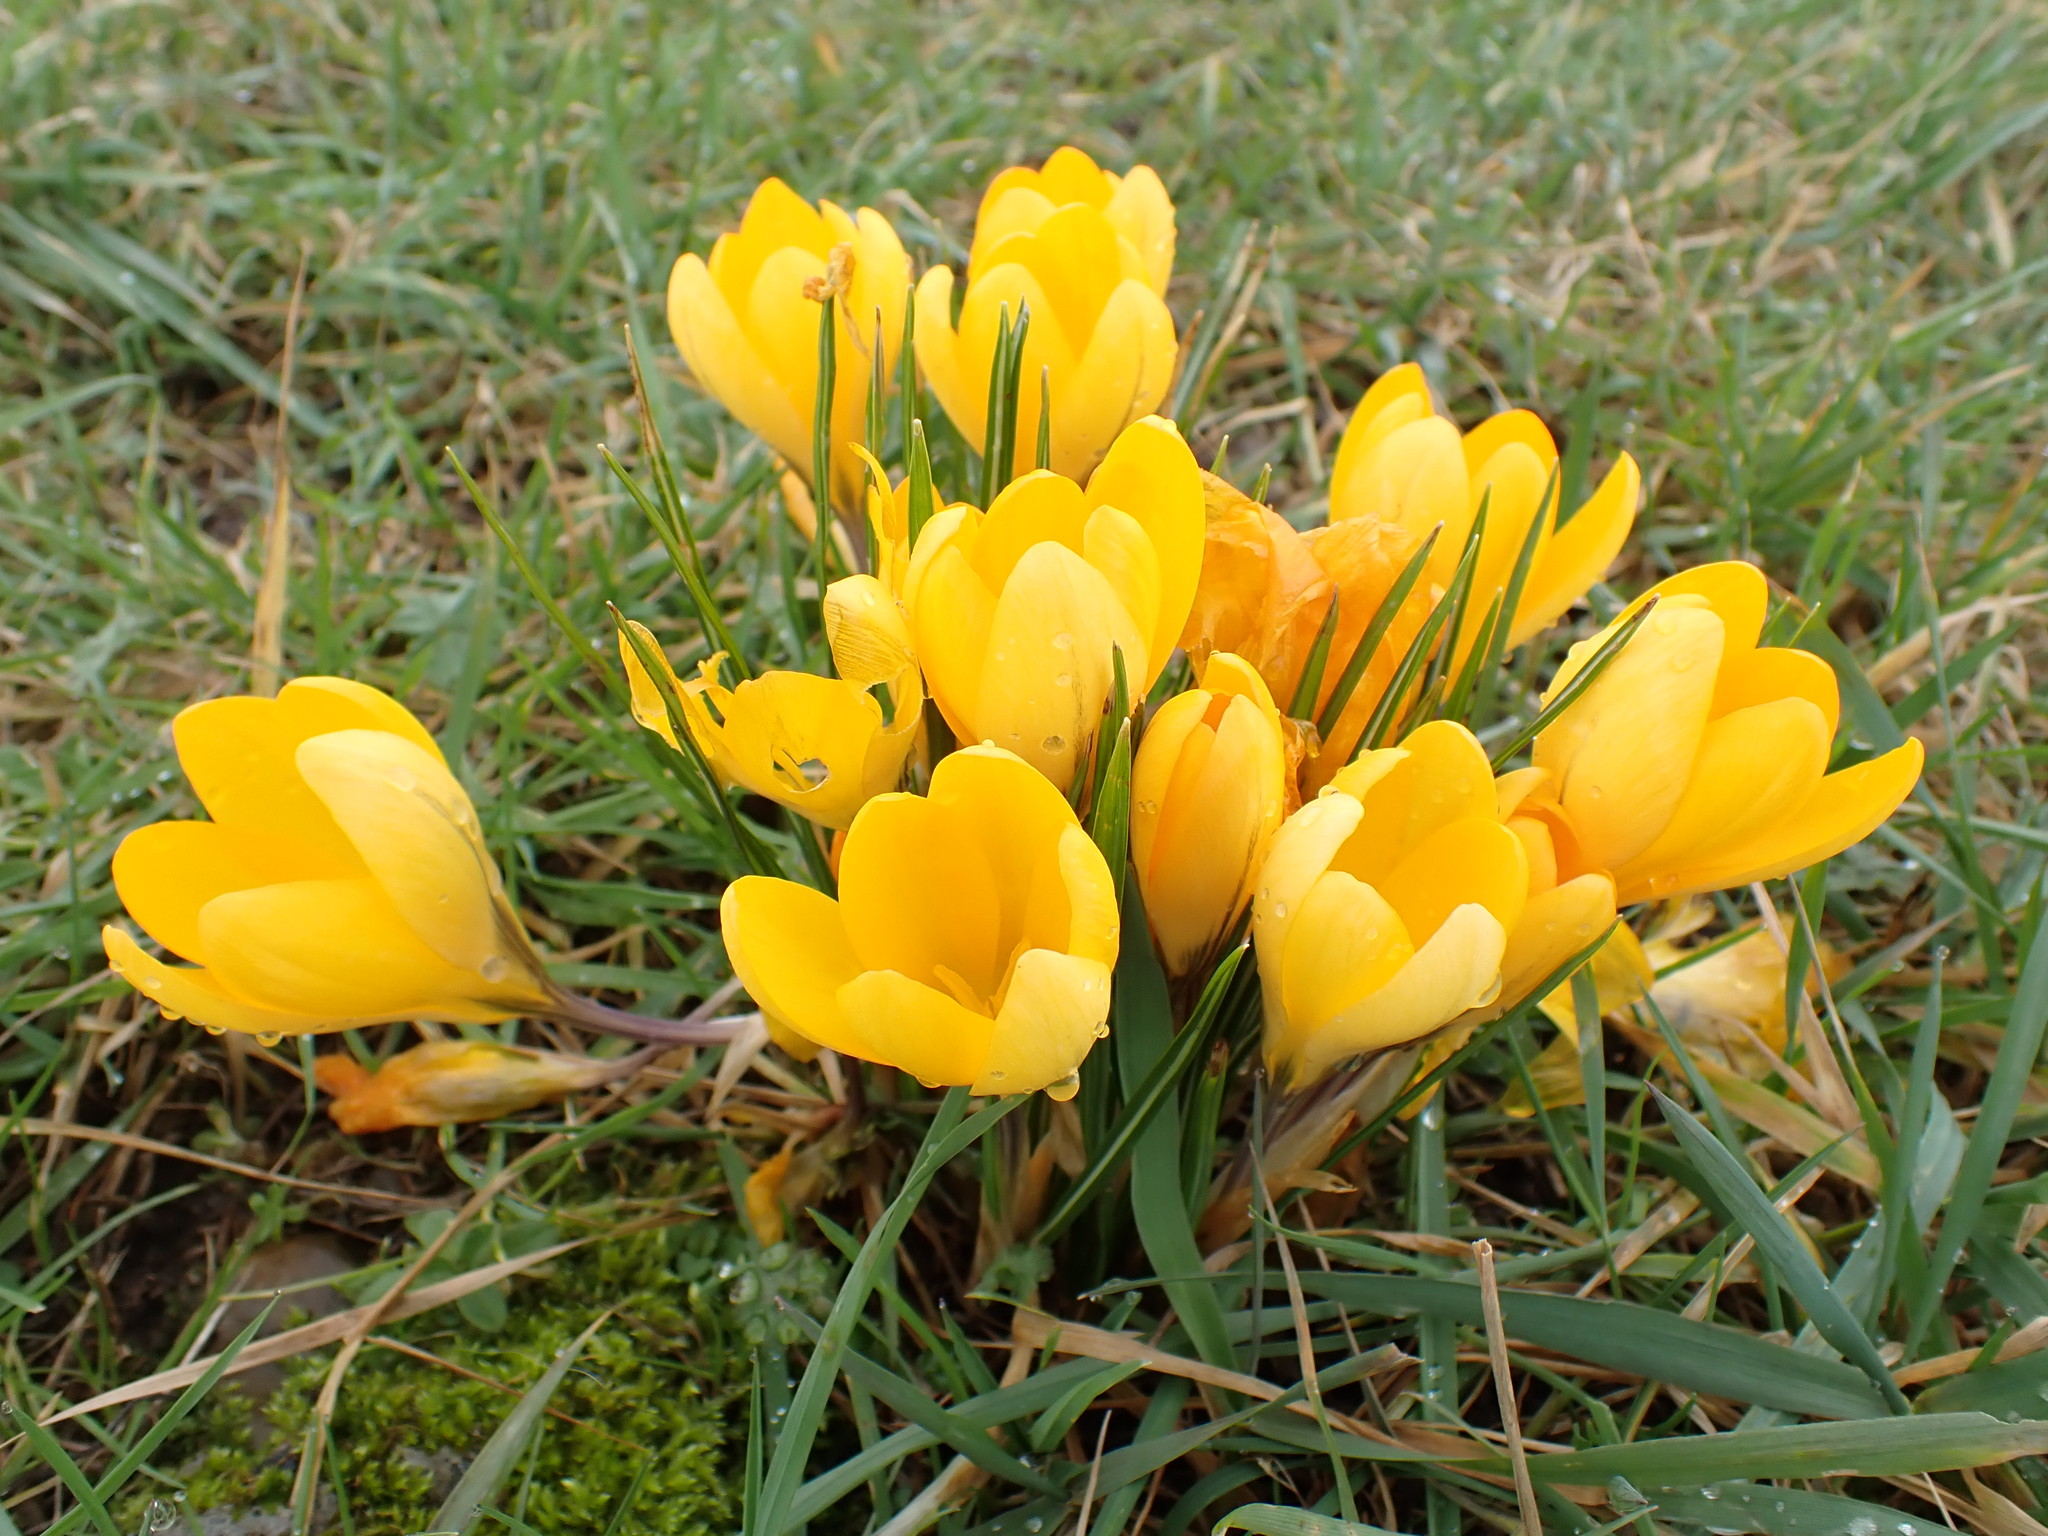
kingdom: Plantae
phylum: Tracheophyta
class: Liliopsida
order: Asparagales
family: Iridaceae
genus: Crocus
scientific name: Crocus luteus
